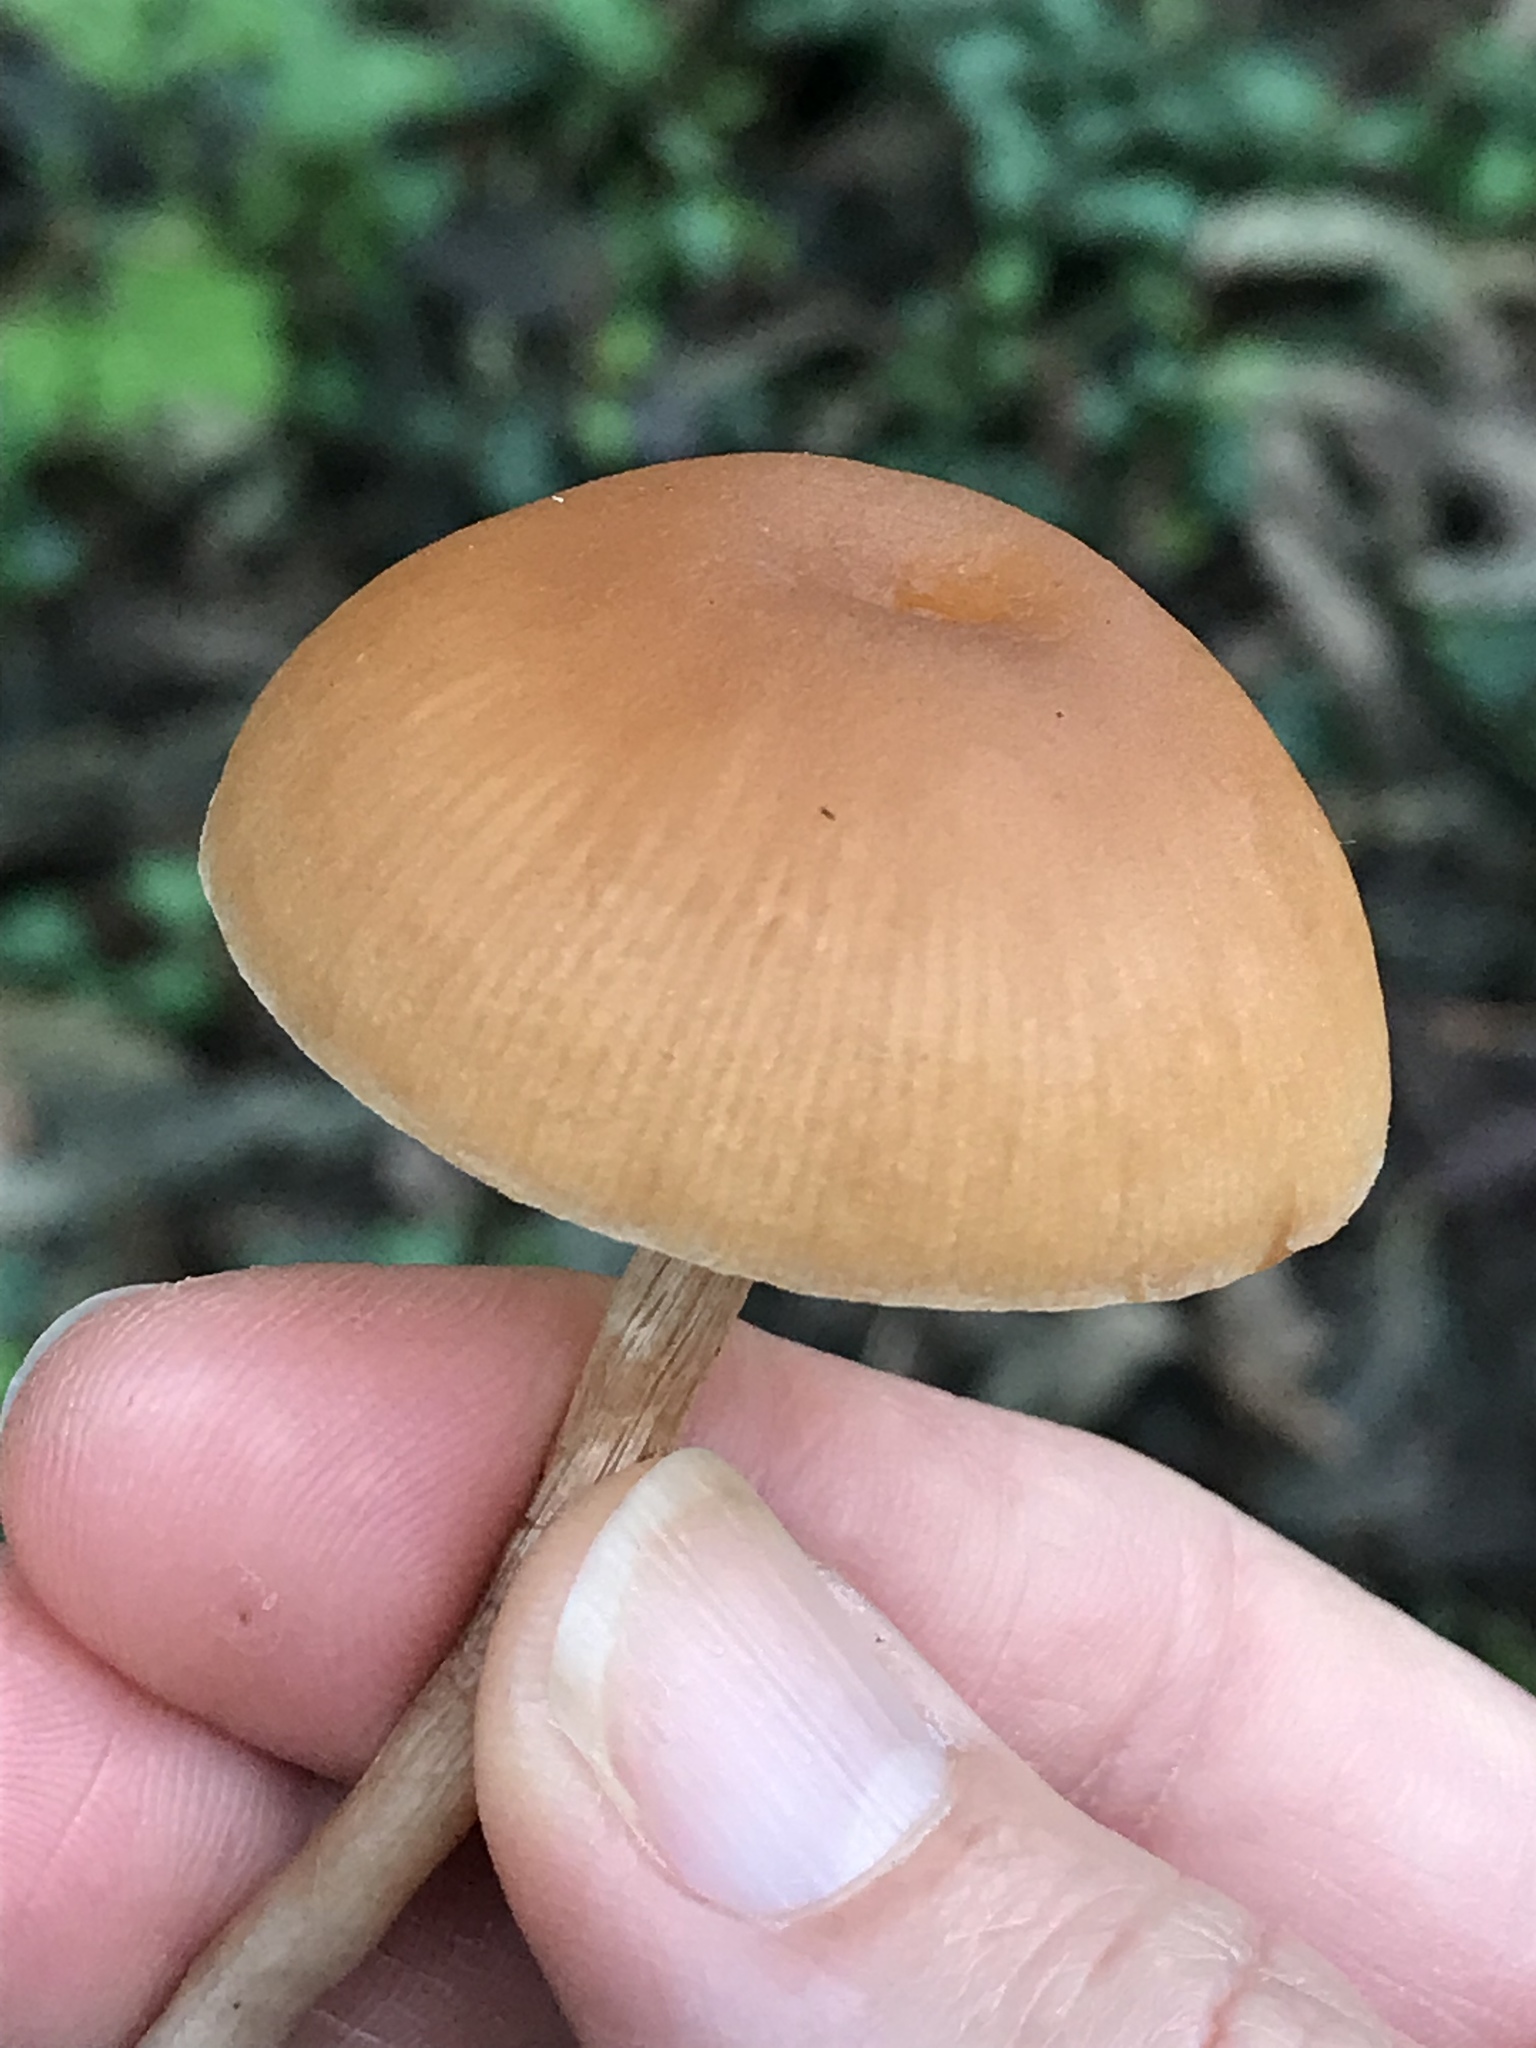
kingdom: Fungi
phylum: Basidiomycota
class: Agaricomycetes
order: Agaricales
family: Tubariaceae
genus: Tubaria
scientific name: Tubaria furfuracea
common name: Scurfy twiglet
